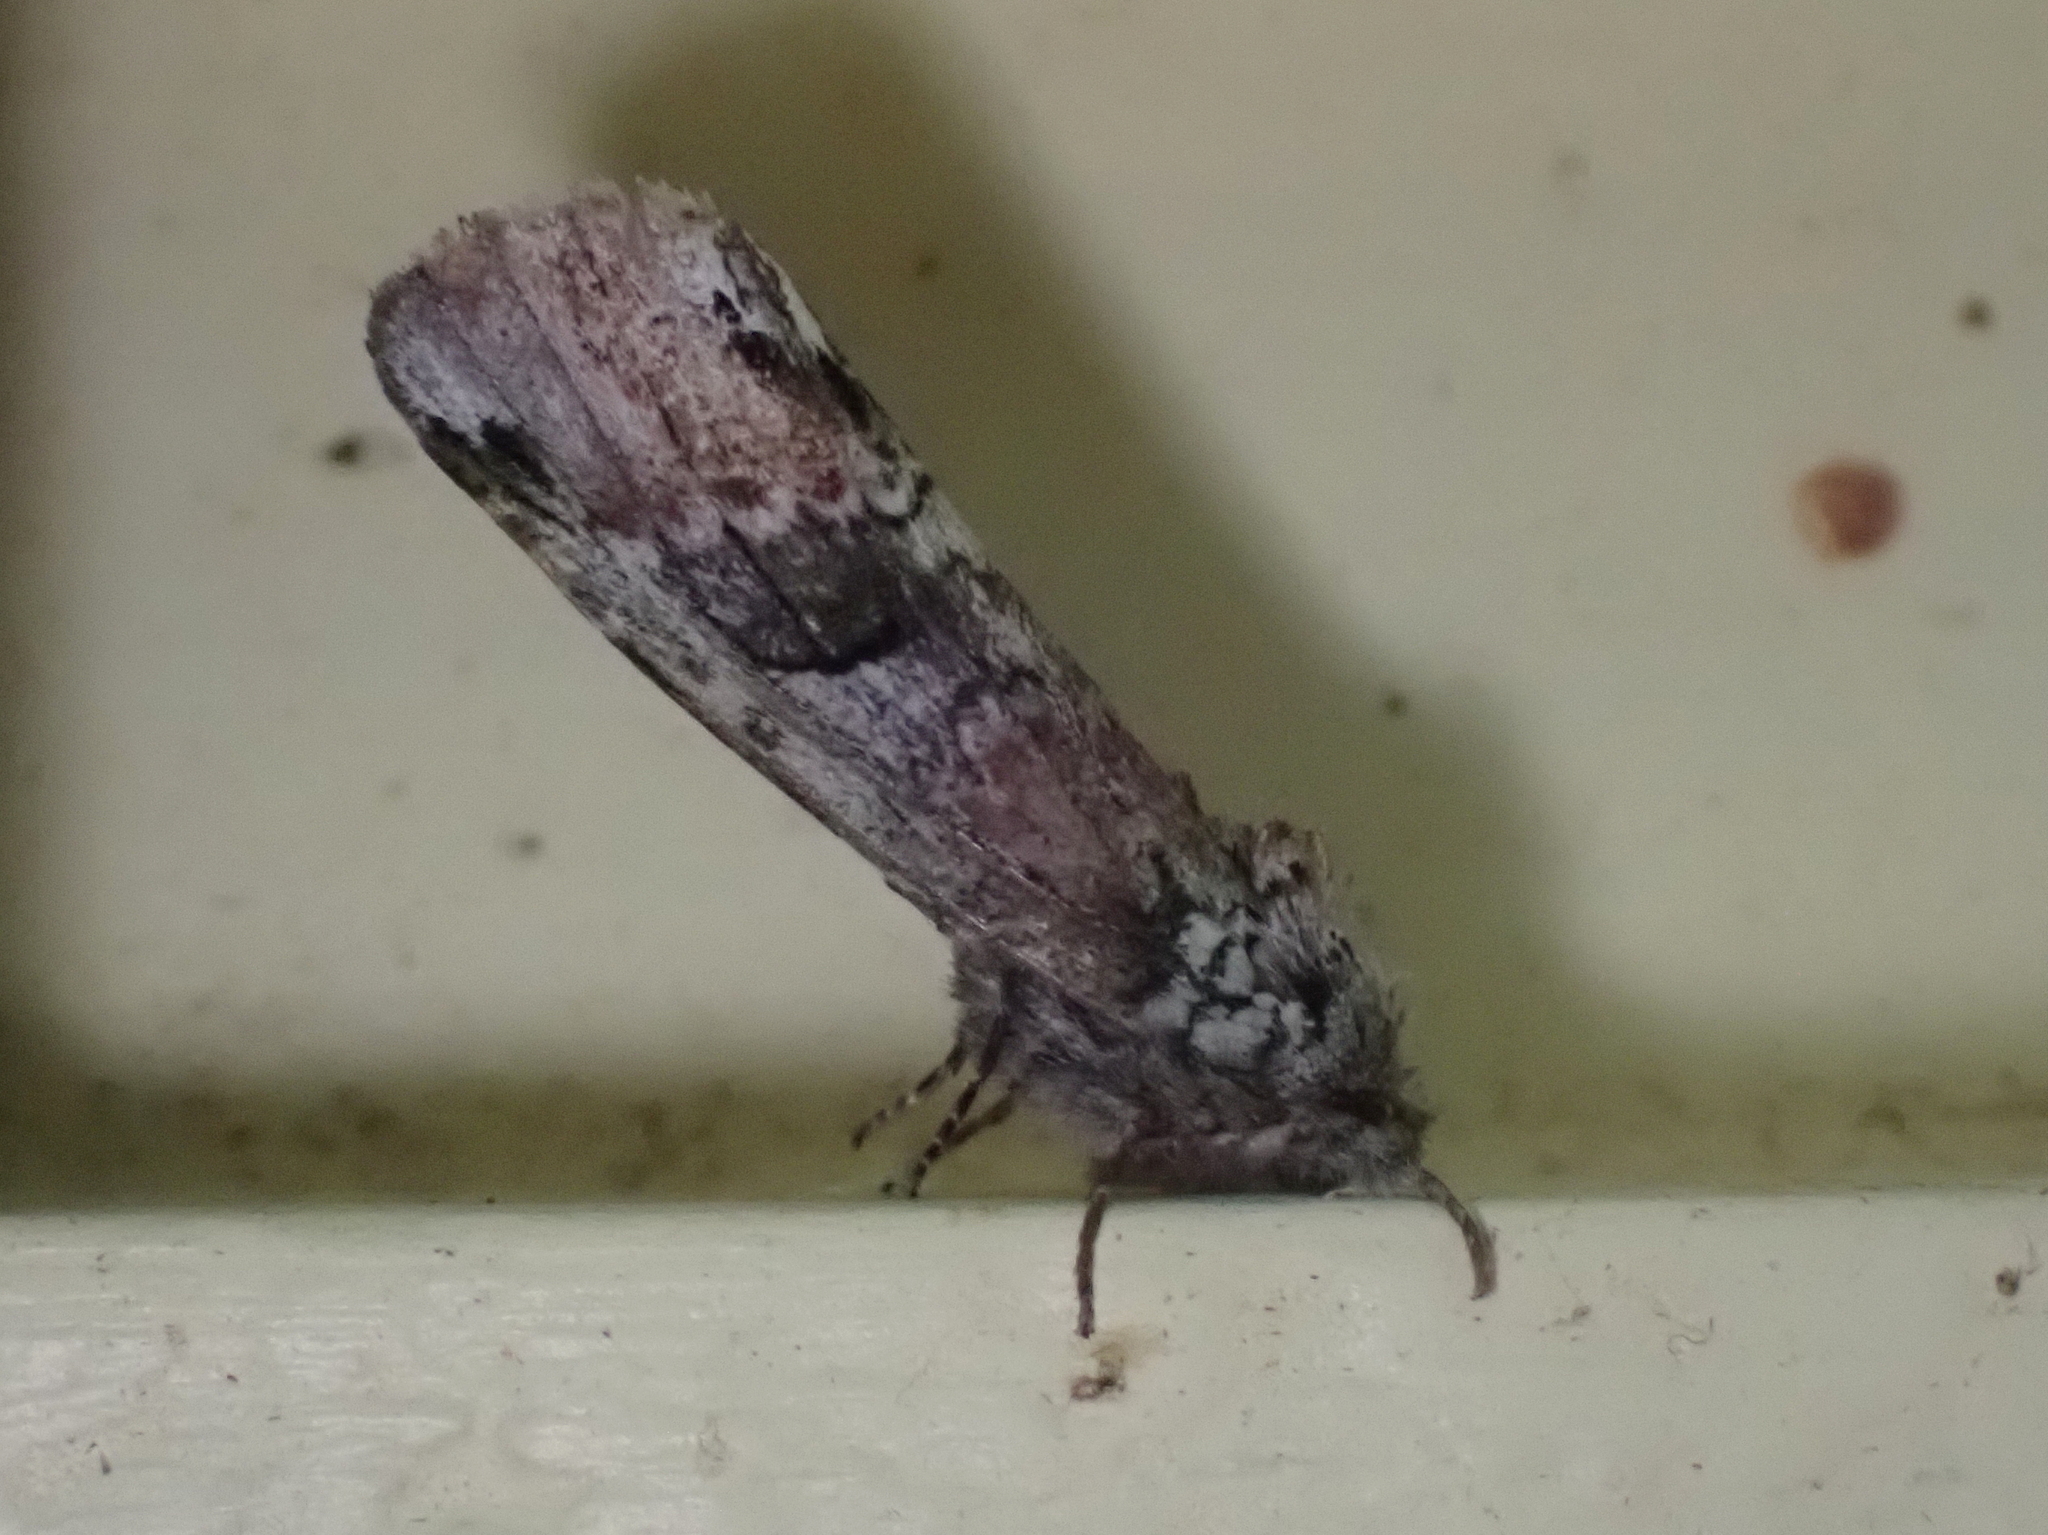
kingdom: Animalia
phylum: Arthropoda
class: Insecta
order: Lepidoptera
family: Notodontidae
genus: Schizura
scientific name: Schizura
